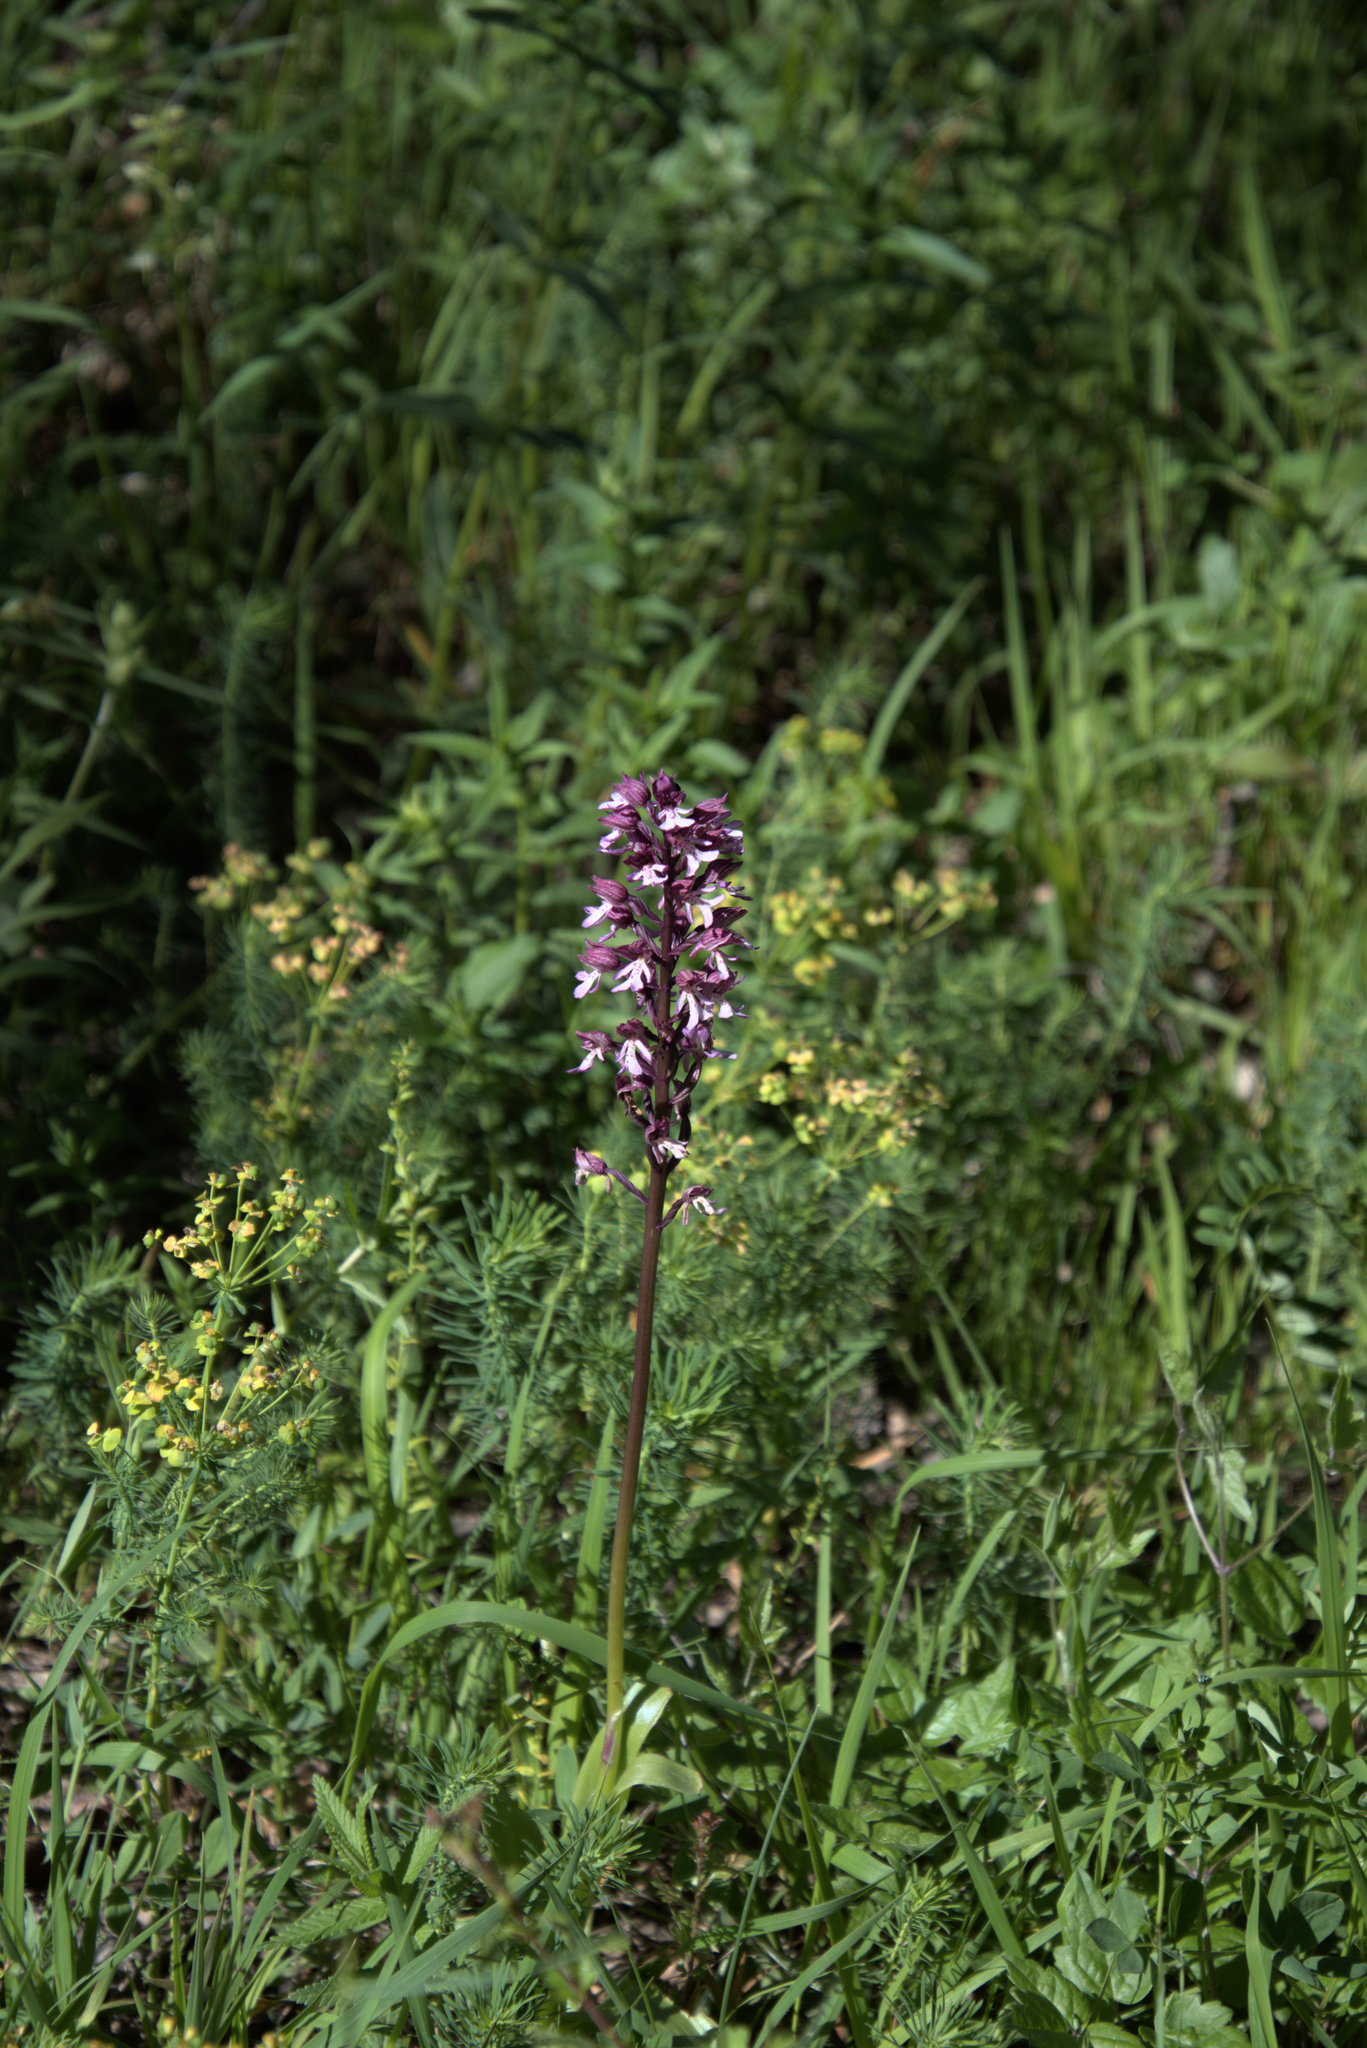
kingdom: Plantae
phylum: Tracheophyta
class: Liliopsida
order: Asparagales
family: Orchidaceae
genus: Orchis
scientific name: Orchis purpurea
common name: Lady orchid
